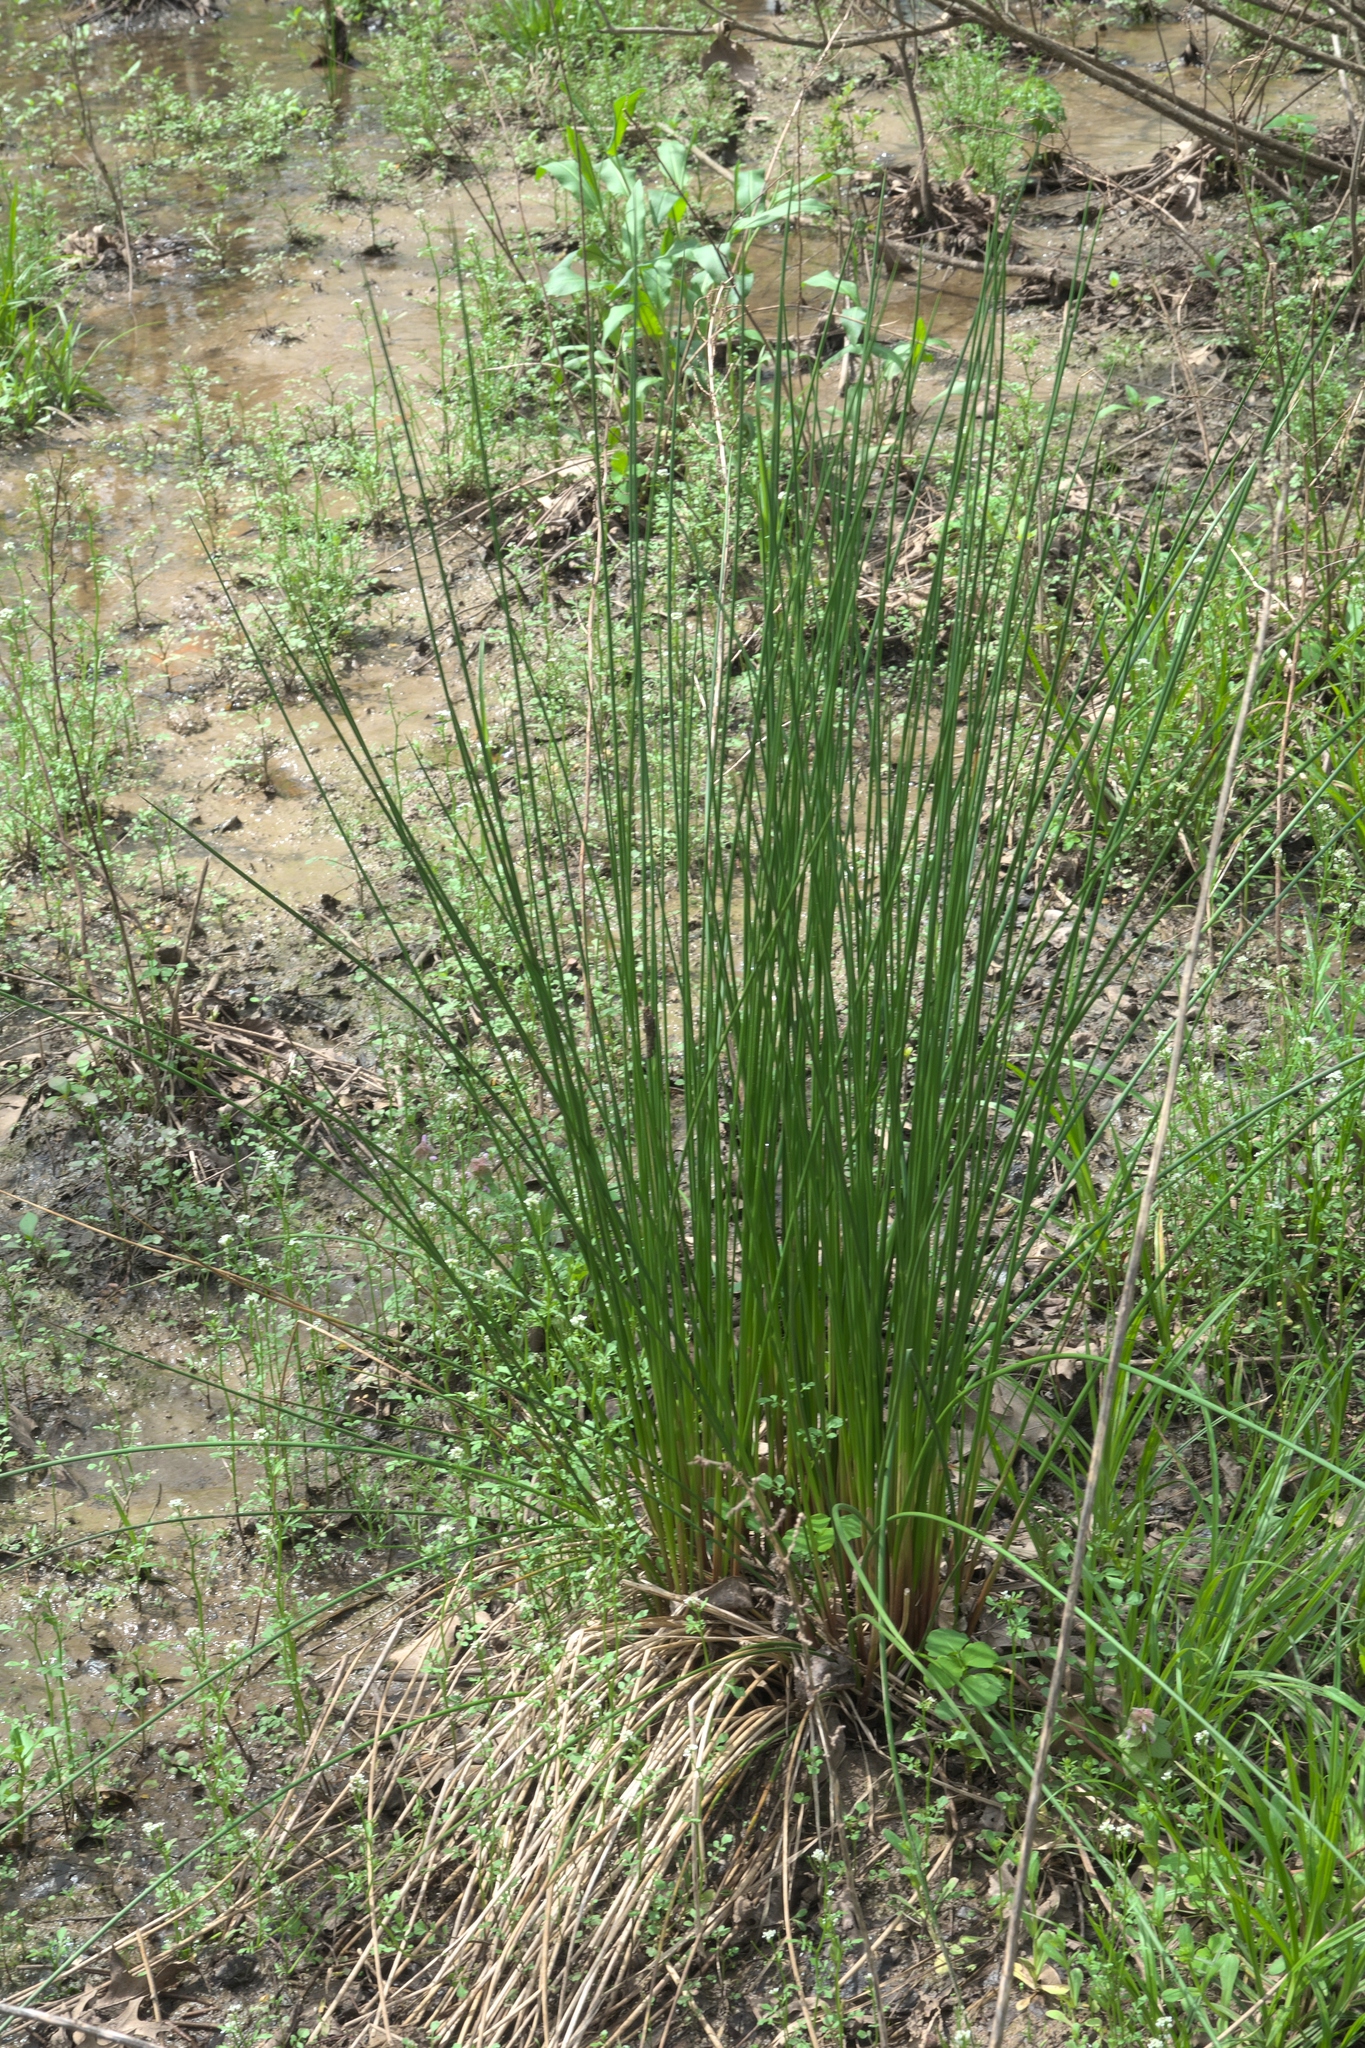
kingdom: Plantae
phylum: Tracheophyta
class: Liliopsida
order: Poales
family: Juncaceae
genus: Juncus
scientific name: Juncus effusus
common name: Soft rush
